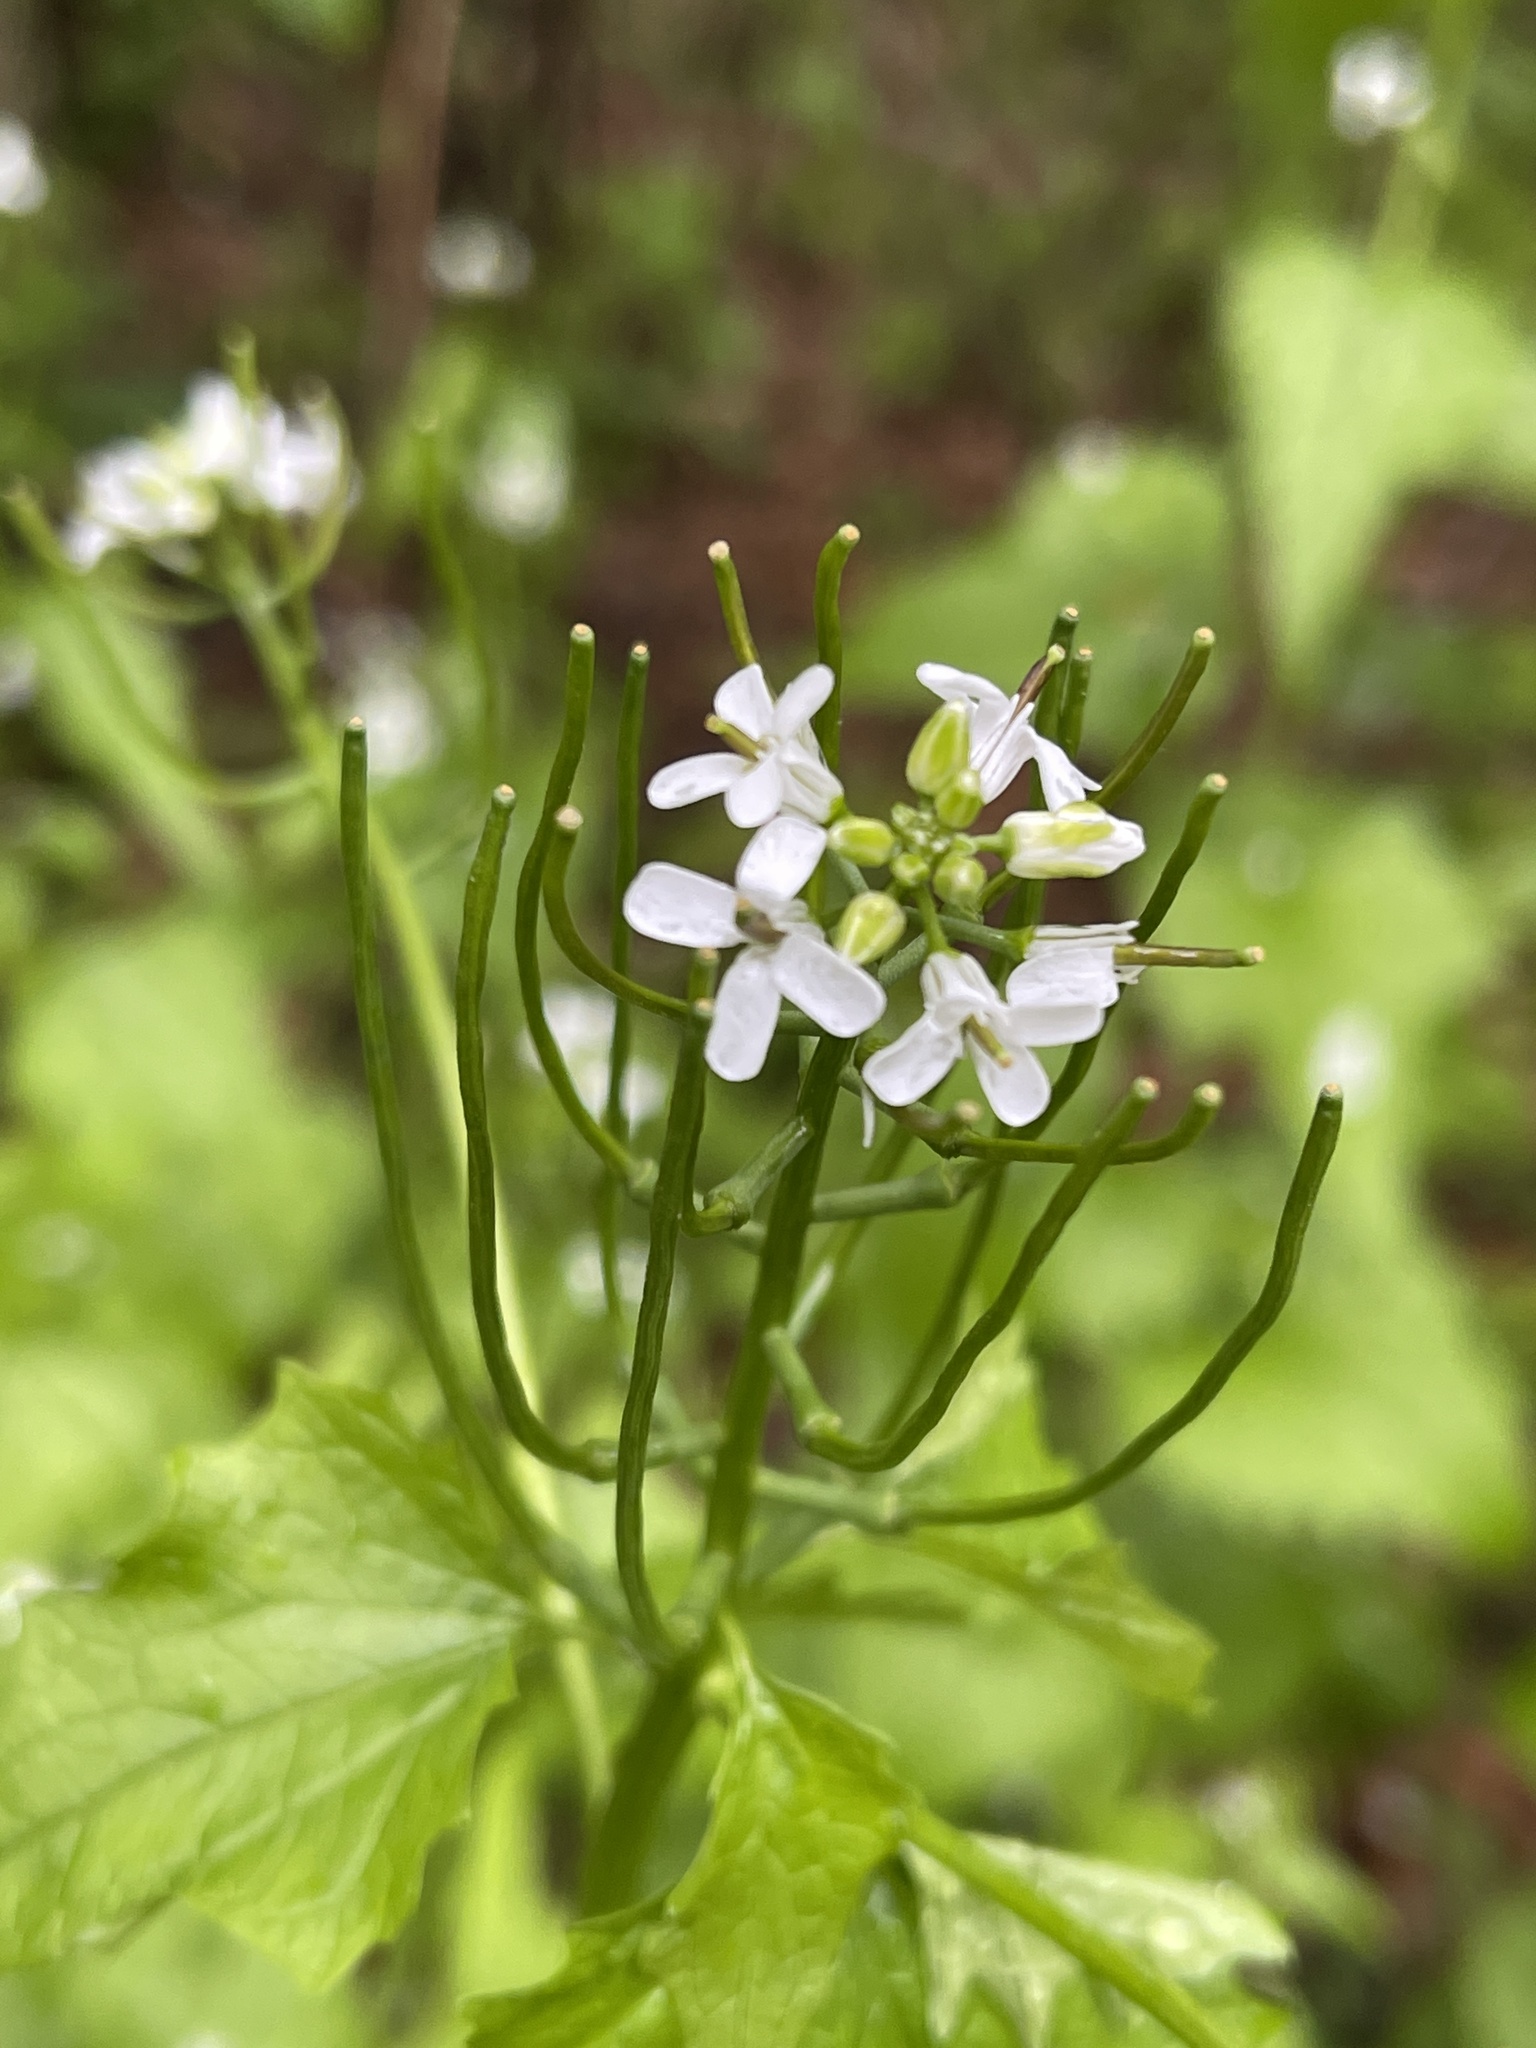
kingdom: Plantae
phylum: Tracheophyta
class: Magnoliopsida
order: Brassicales
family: Brassicaceae
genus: Alliaria
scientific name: Alliaria petiolata
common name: Garlic mustard
